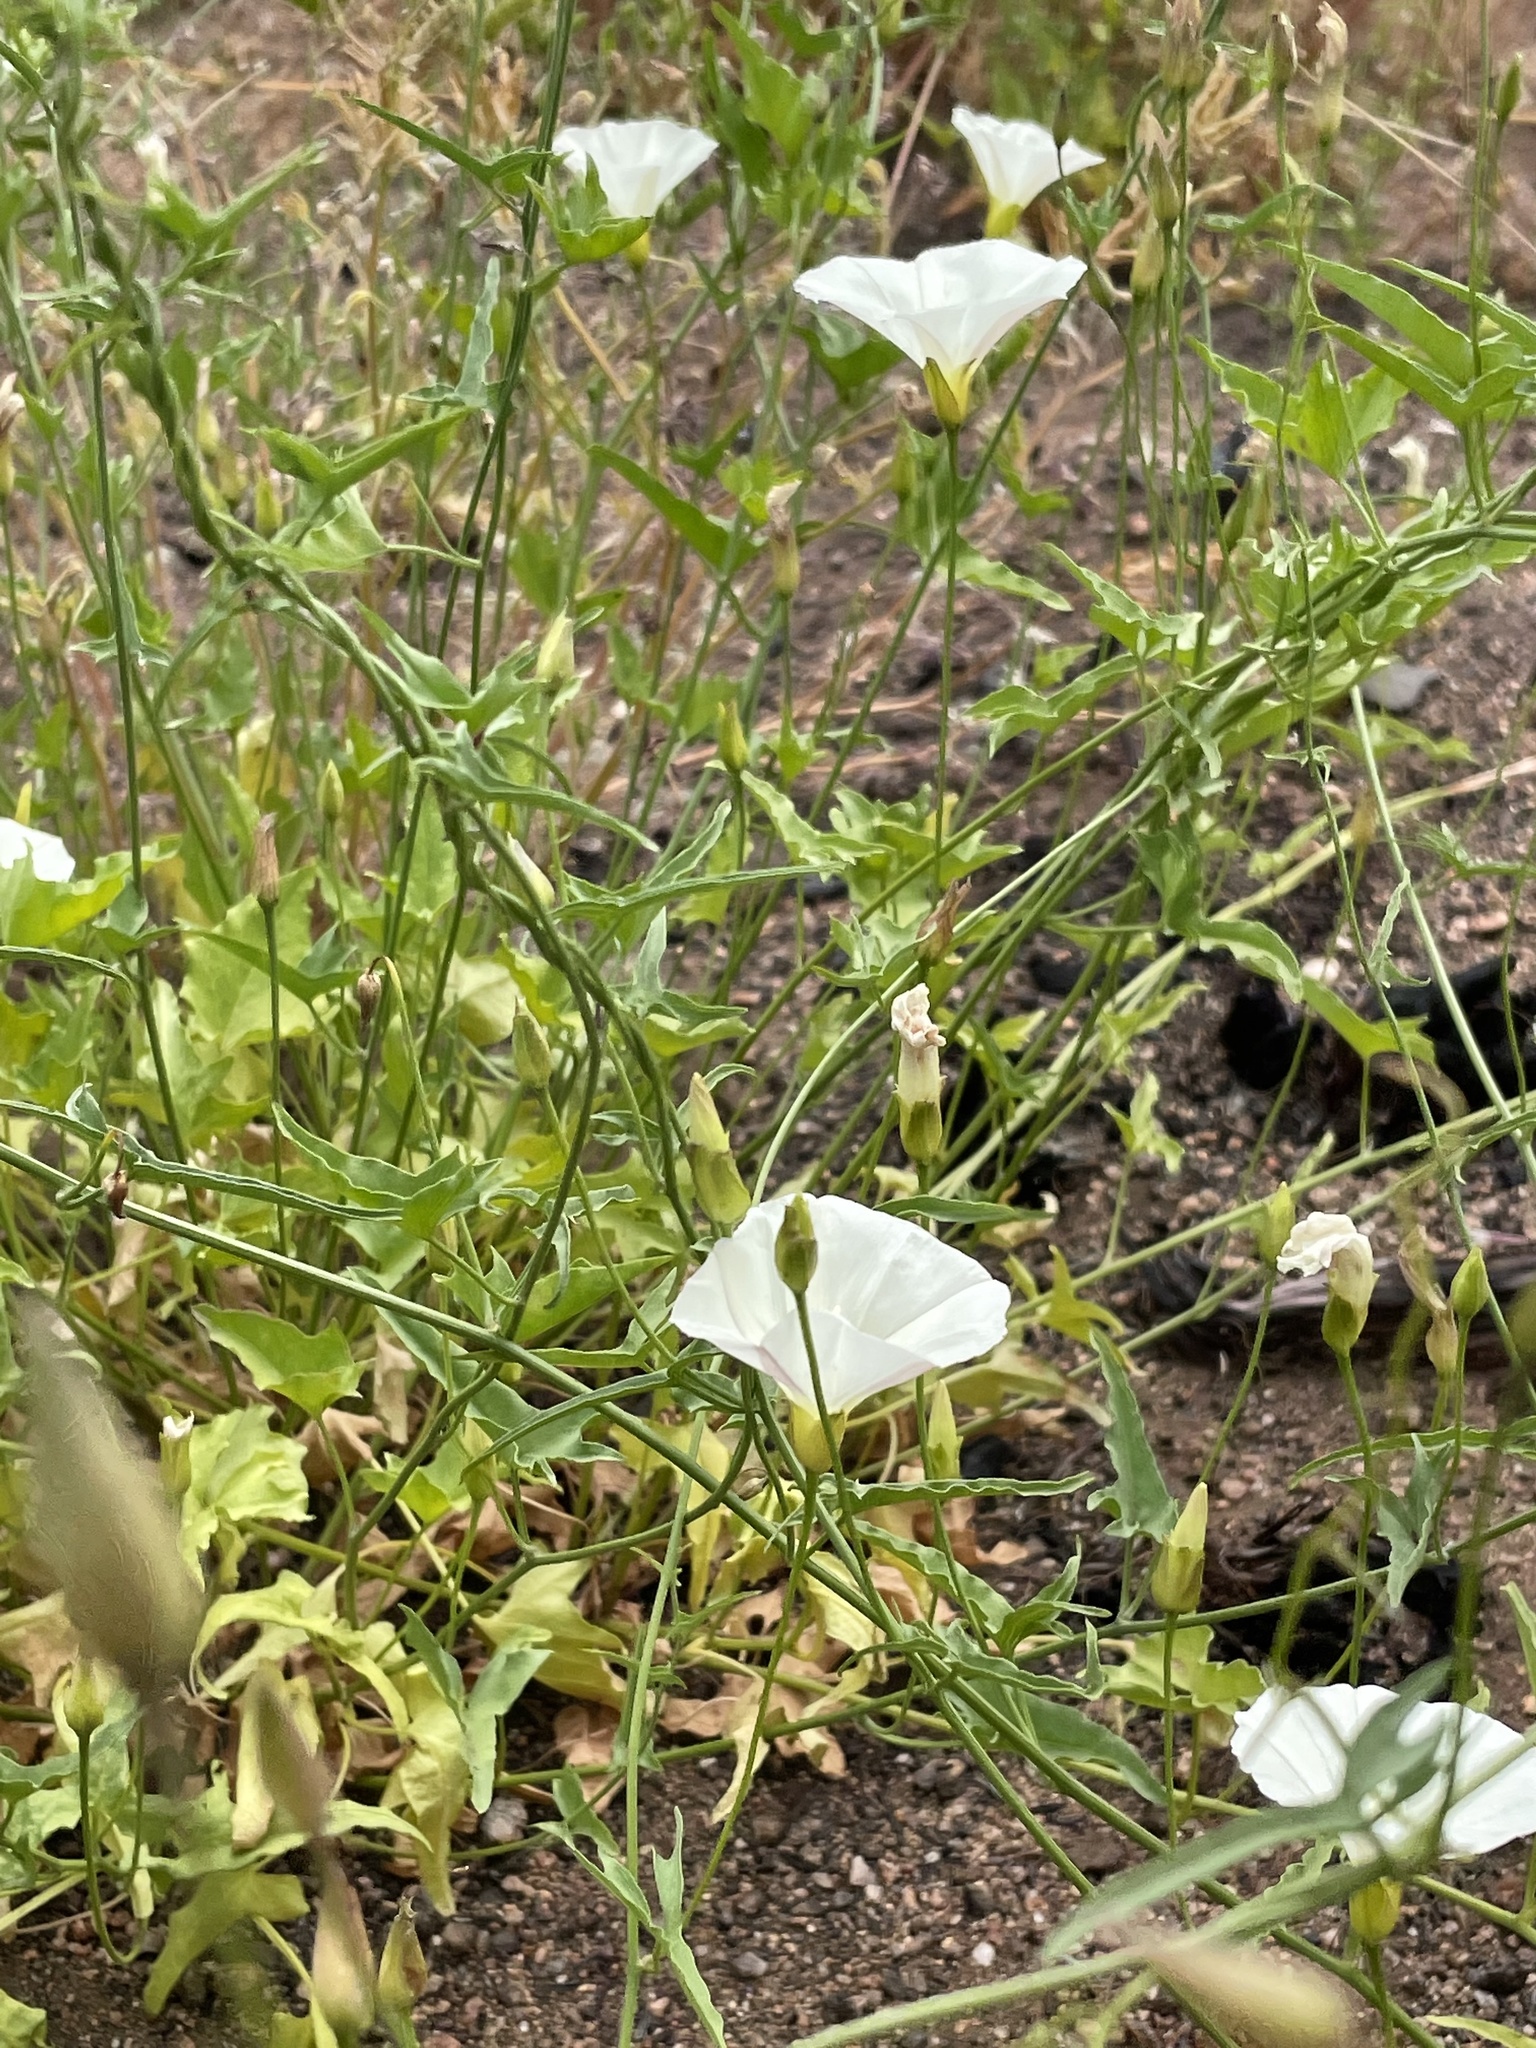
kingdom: Plantae
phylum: Tracheophyta
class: Magnoliopsida
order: Solanales
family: Convolvulaceae
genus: Calystegia
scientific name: Calystegia macrostegia
